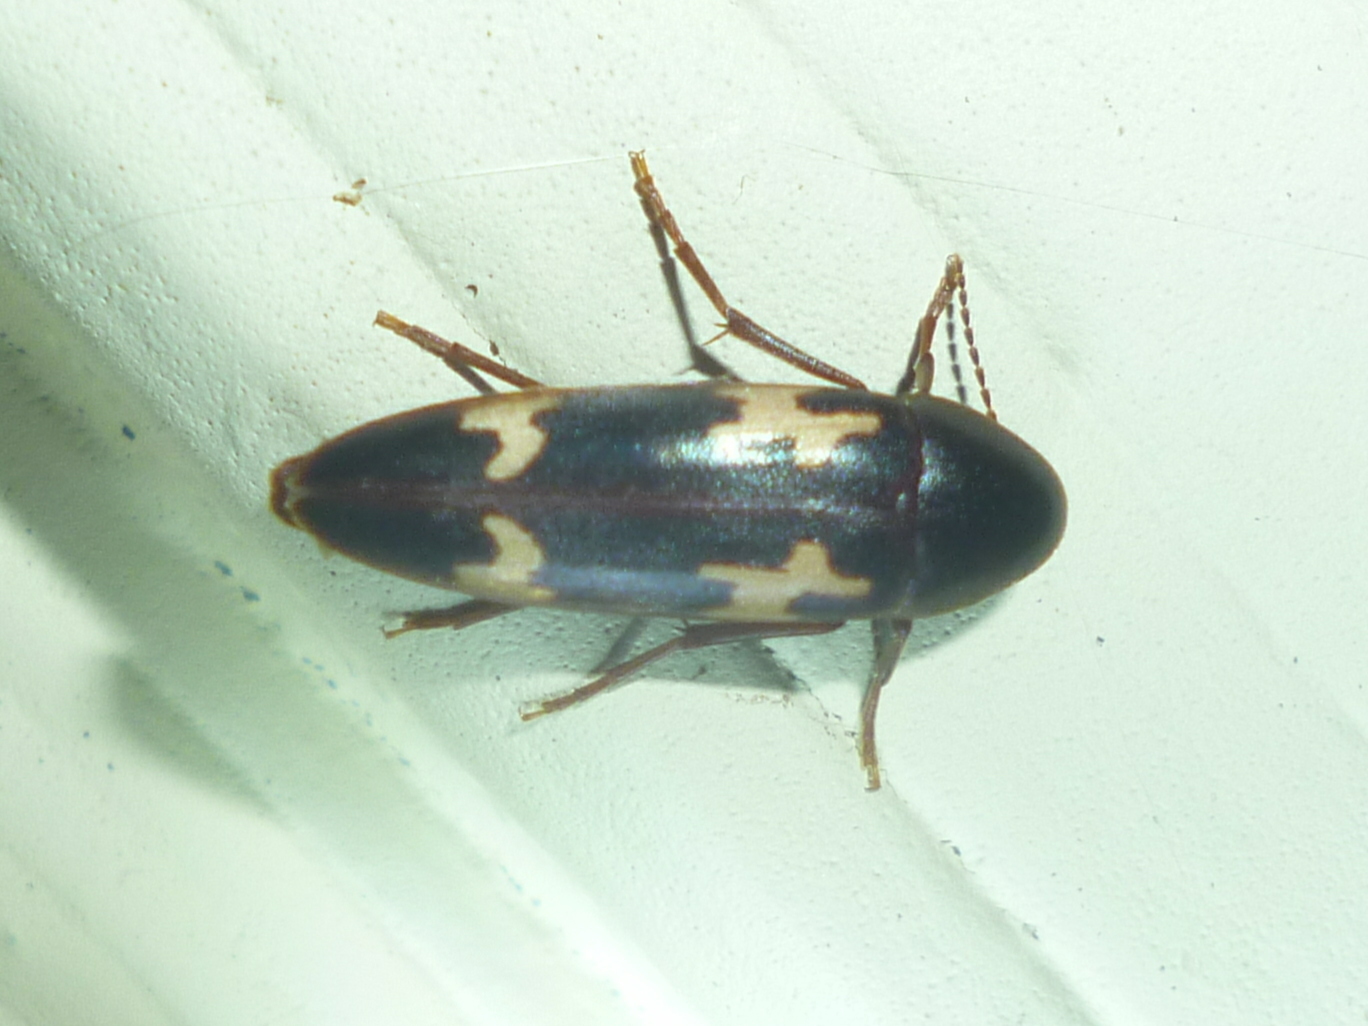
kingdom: Animalia
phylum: Arthropoda
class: Insecta
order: Coleoptera
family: Melandryidae
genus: Dircaea
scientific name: Dircaea liturata
